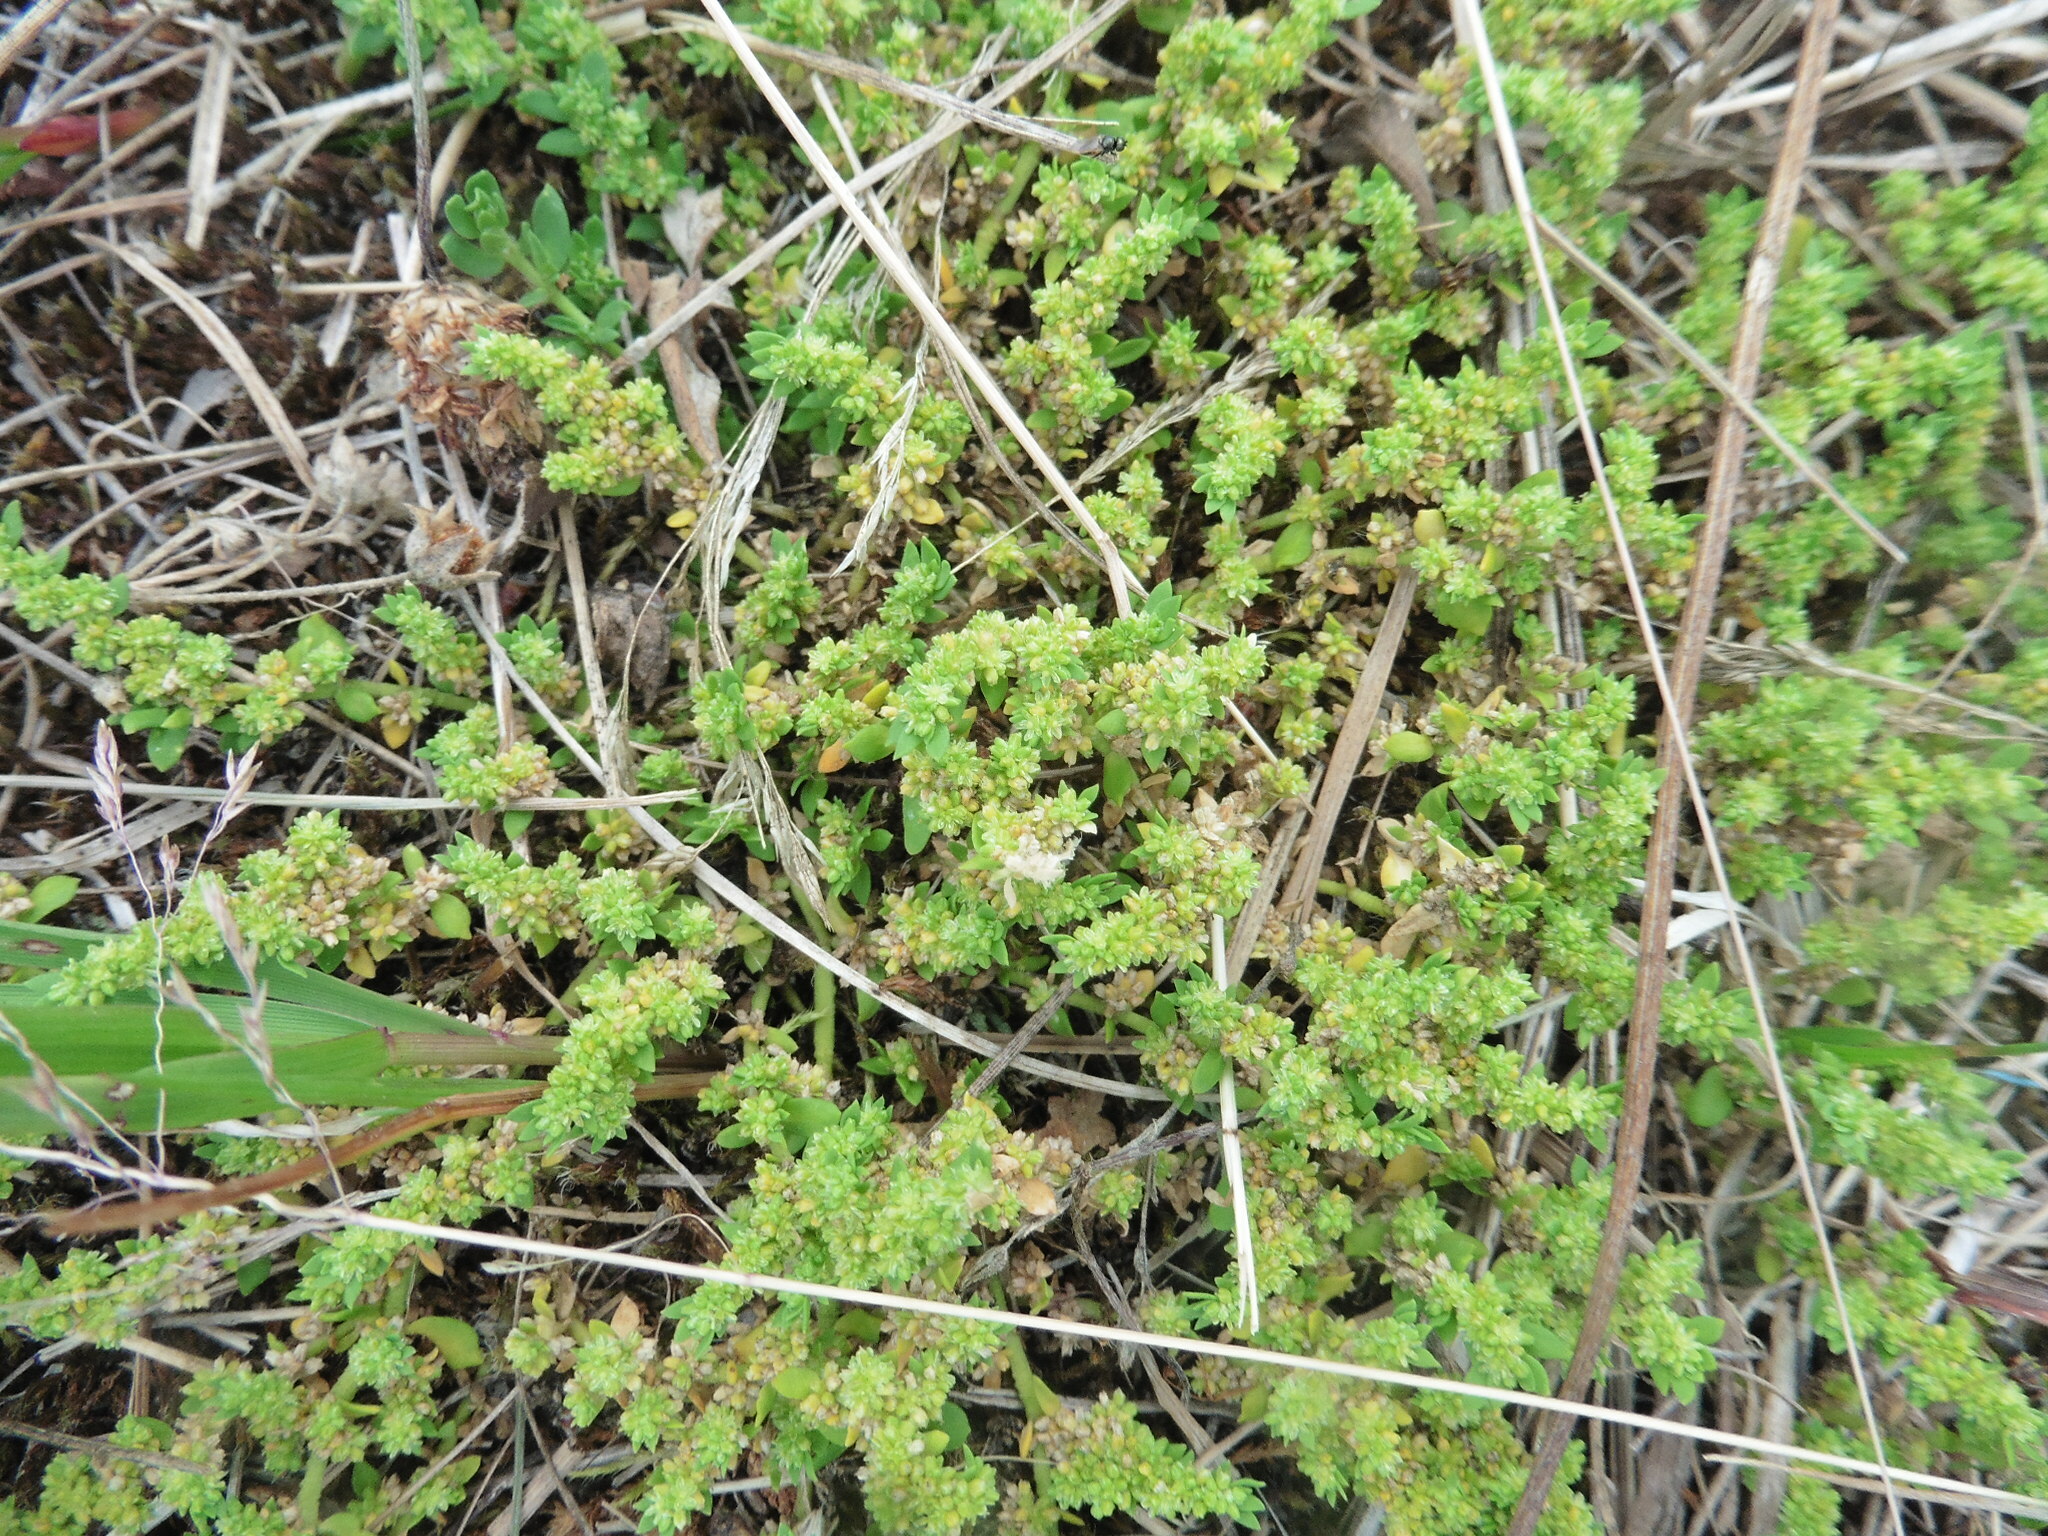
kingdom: Plantae
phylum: Tracheophyta
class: Magnoliopsida
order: Caryophyllales
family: Caryophyllaceae
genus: Herniaria
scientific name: Herniaria glabra
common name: Smooth rupturewort
